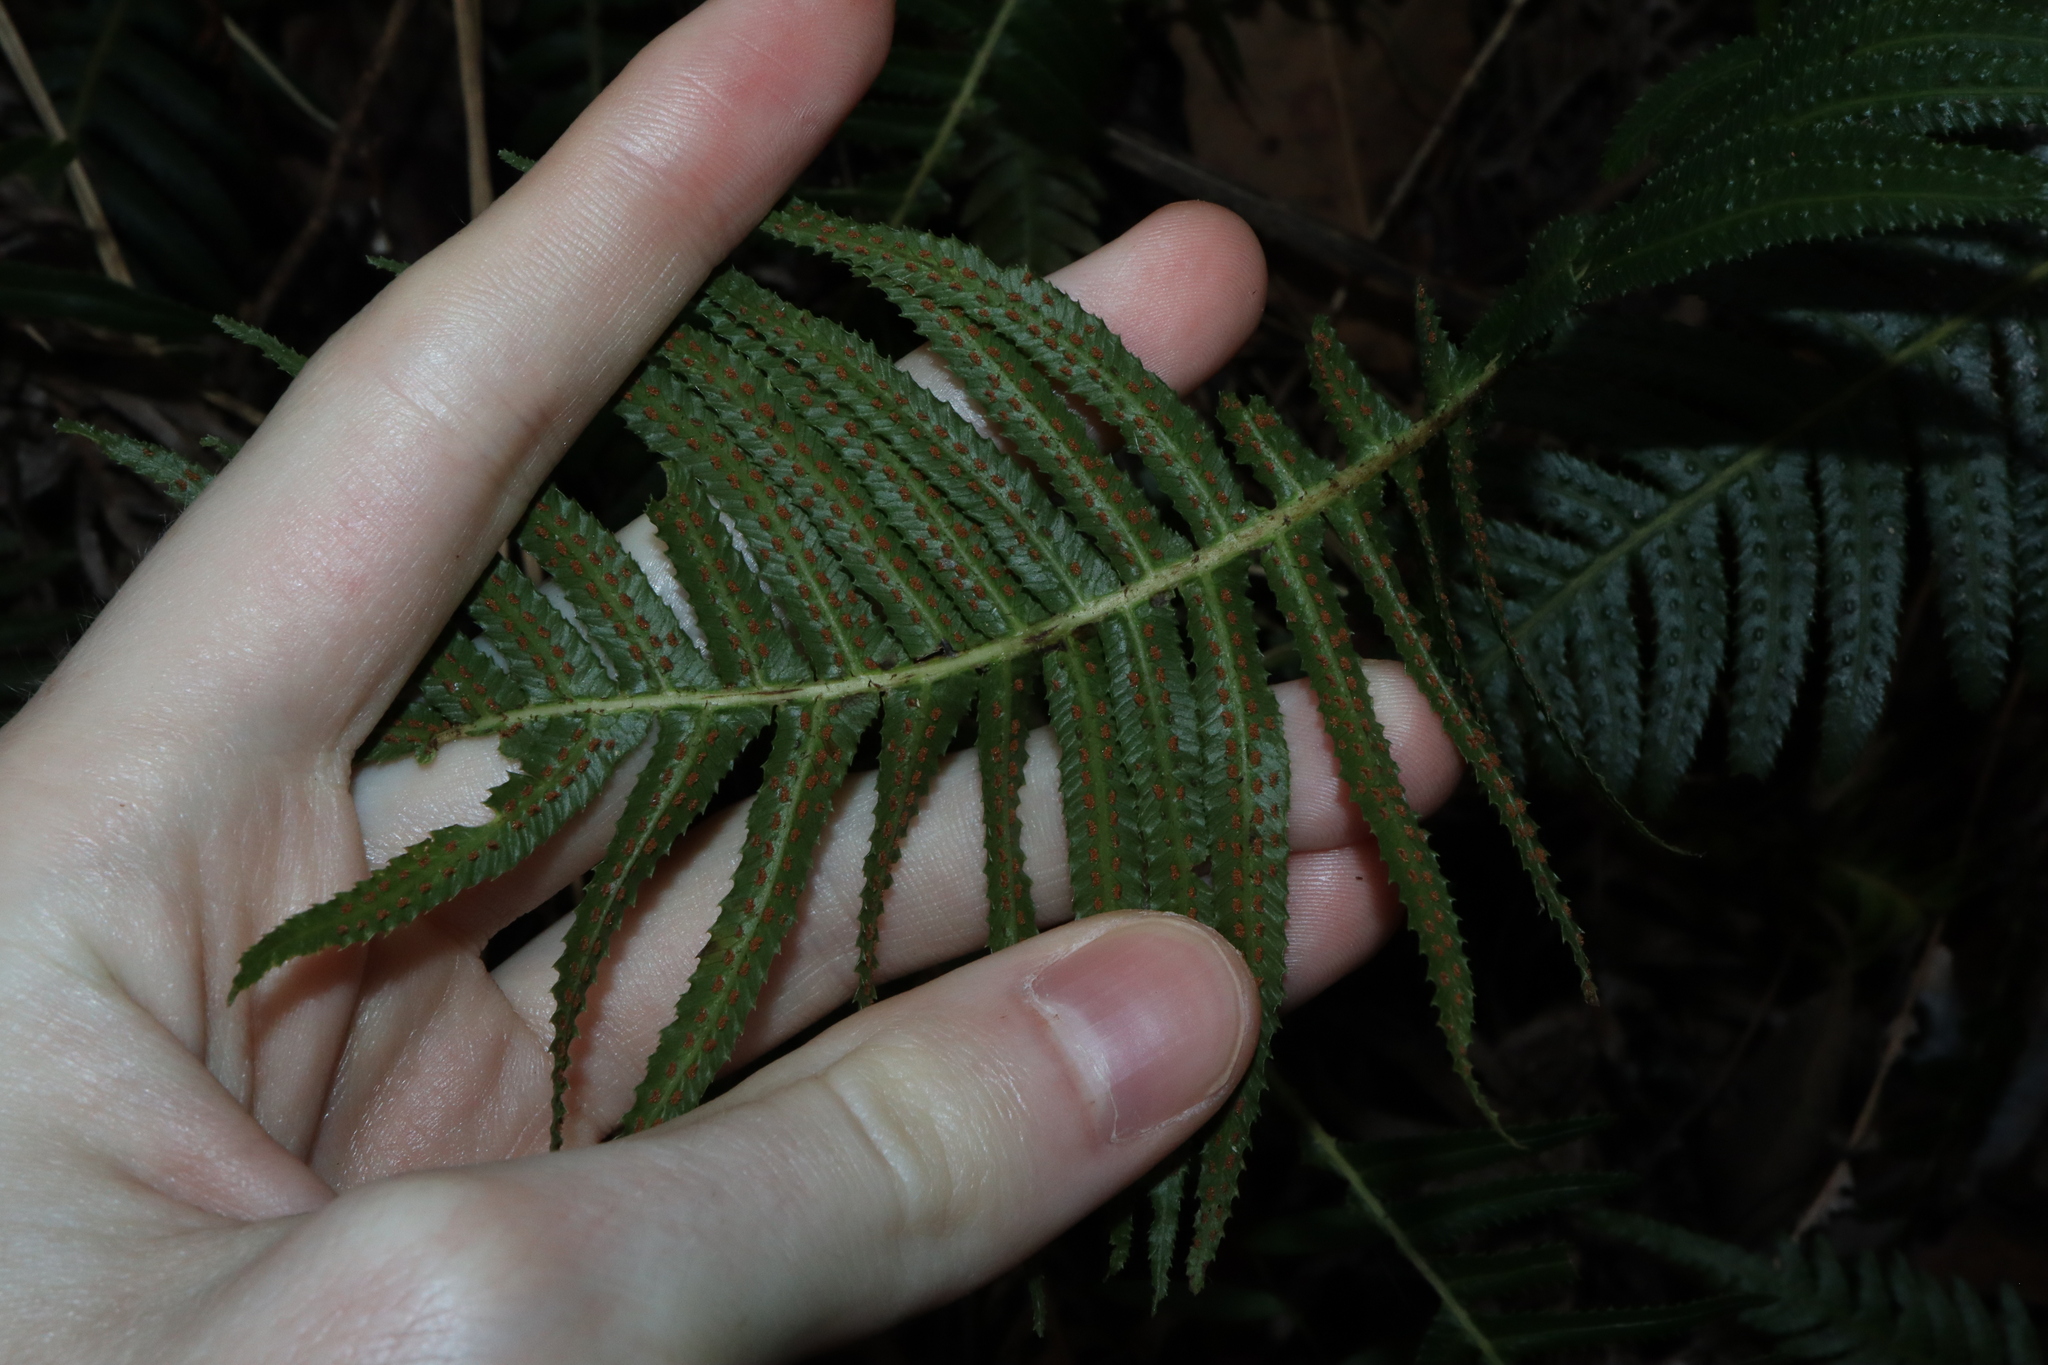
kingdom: Plantae
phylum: Tracheophyta
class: Polypodiopsida
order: Polypodiales
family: Blechnaceae
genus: Doodia
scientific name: Doodia aspera
